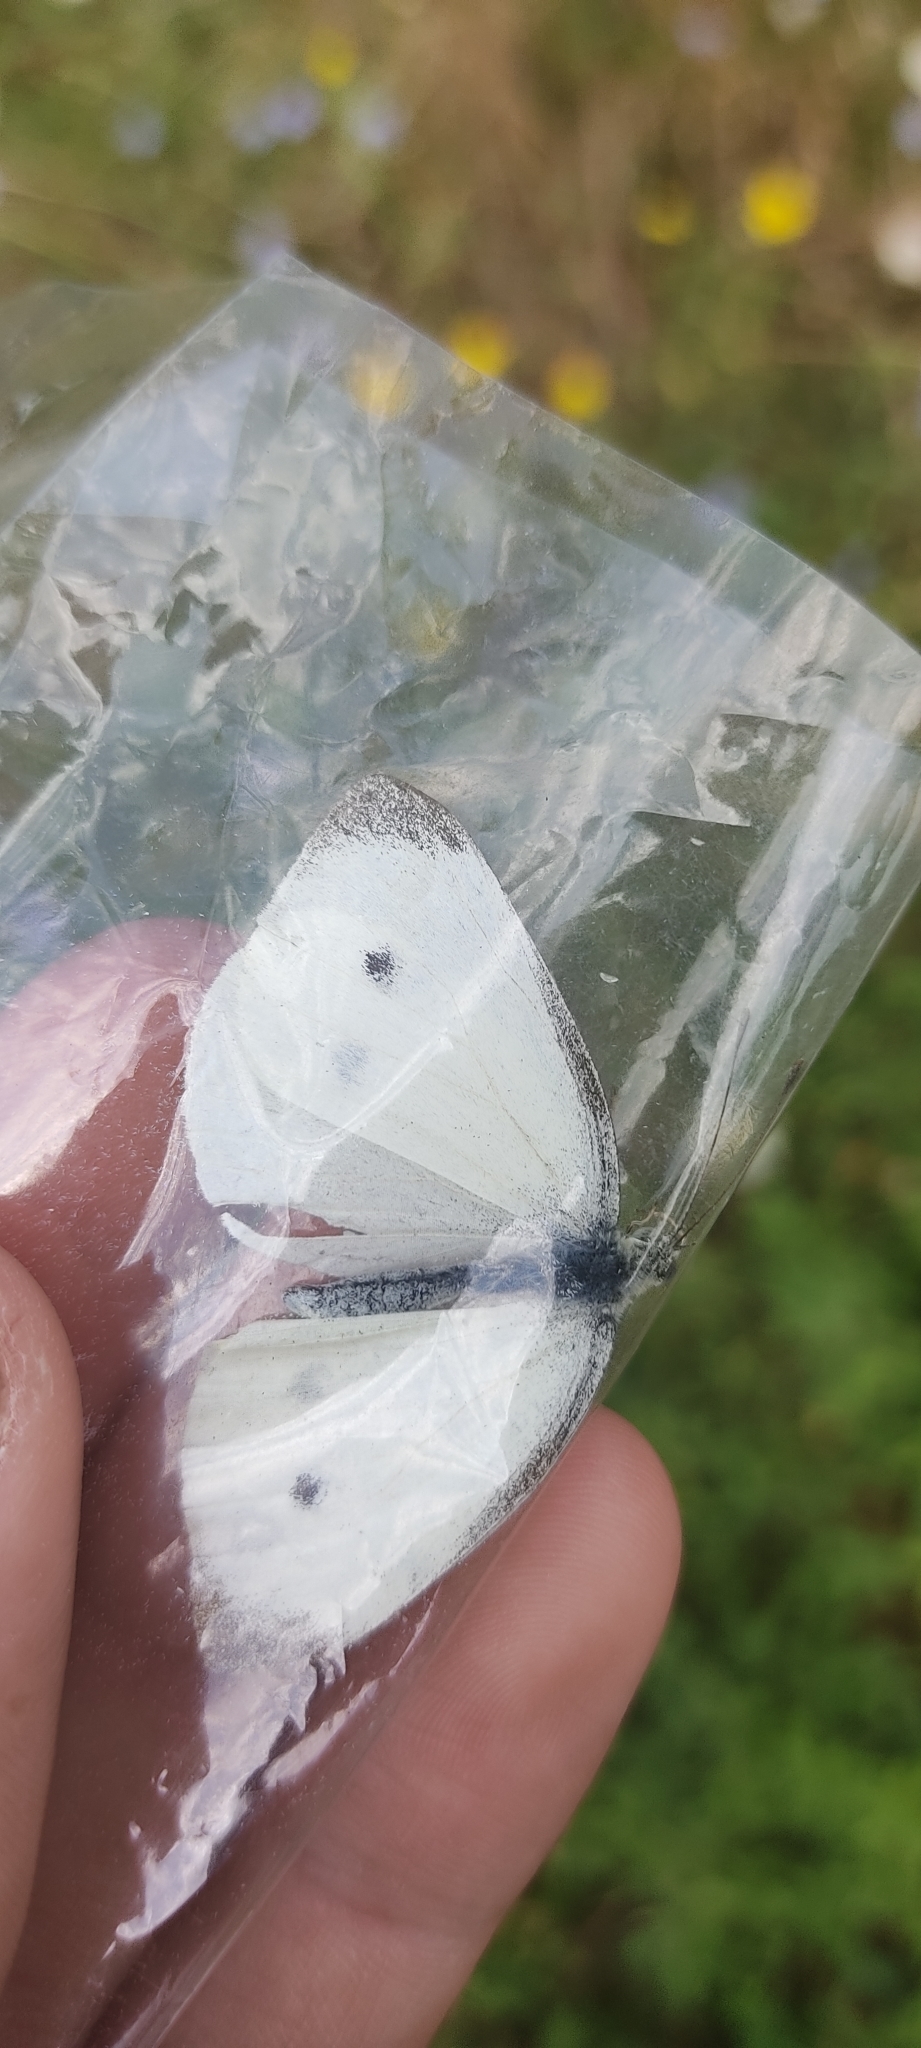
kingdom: Animalia
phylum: Arthropoda
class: Insecta
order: Lepidoptera
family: Pieridae
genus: Pieris
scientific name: Pieris rapae
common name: Small white
